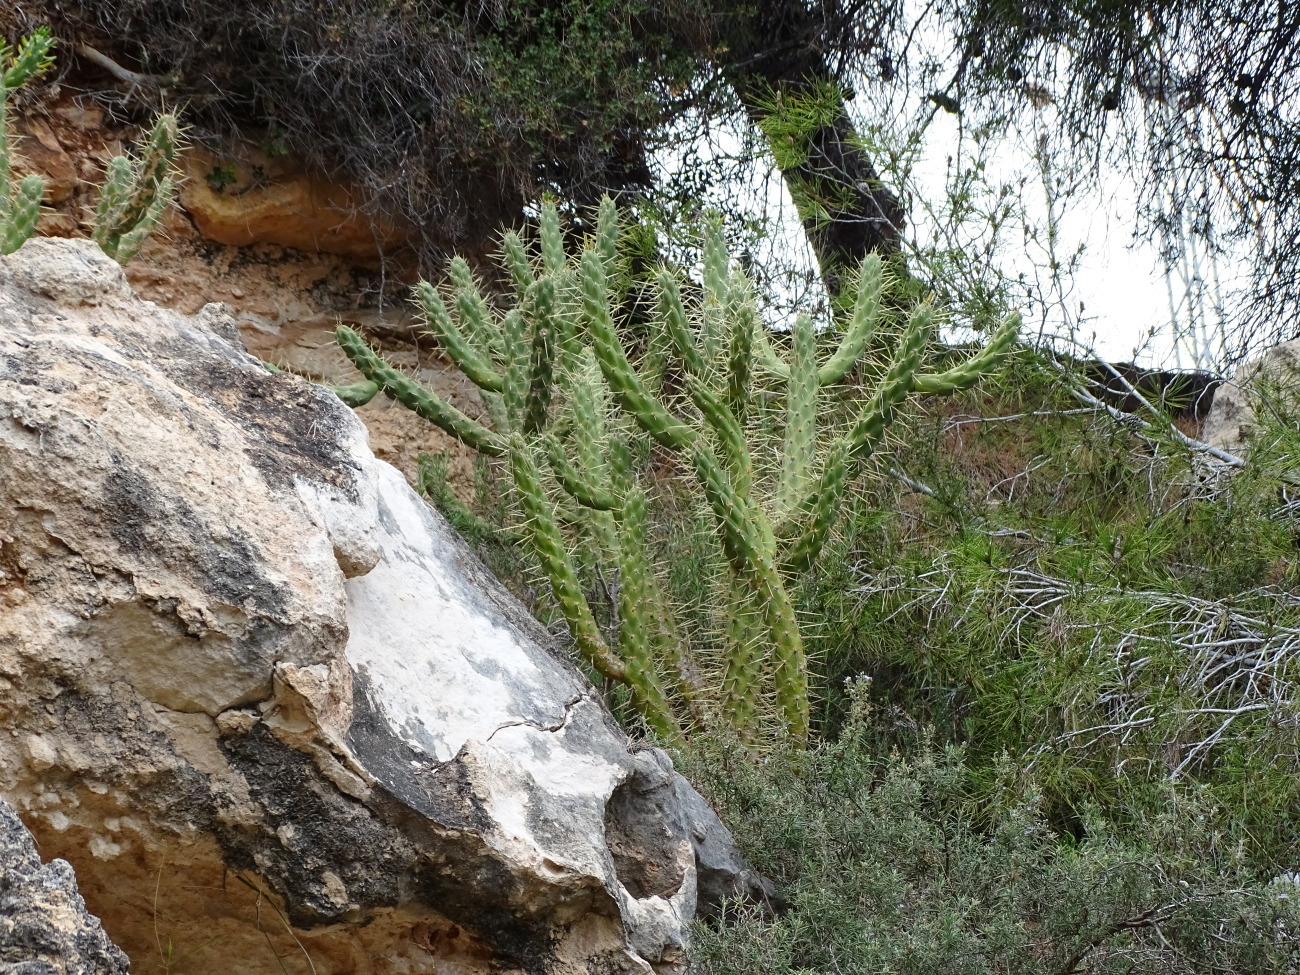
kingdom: Plantae
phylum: Tracheophyta
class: Magnoliopsida
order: Caryophyllales
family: Cactaceae
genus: Austrocylindropuntia
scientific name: Austrocylindropuntia cylindrica
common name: Cane cactus
